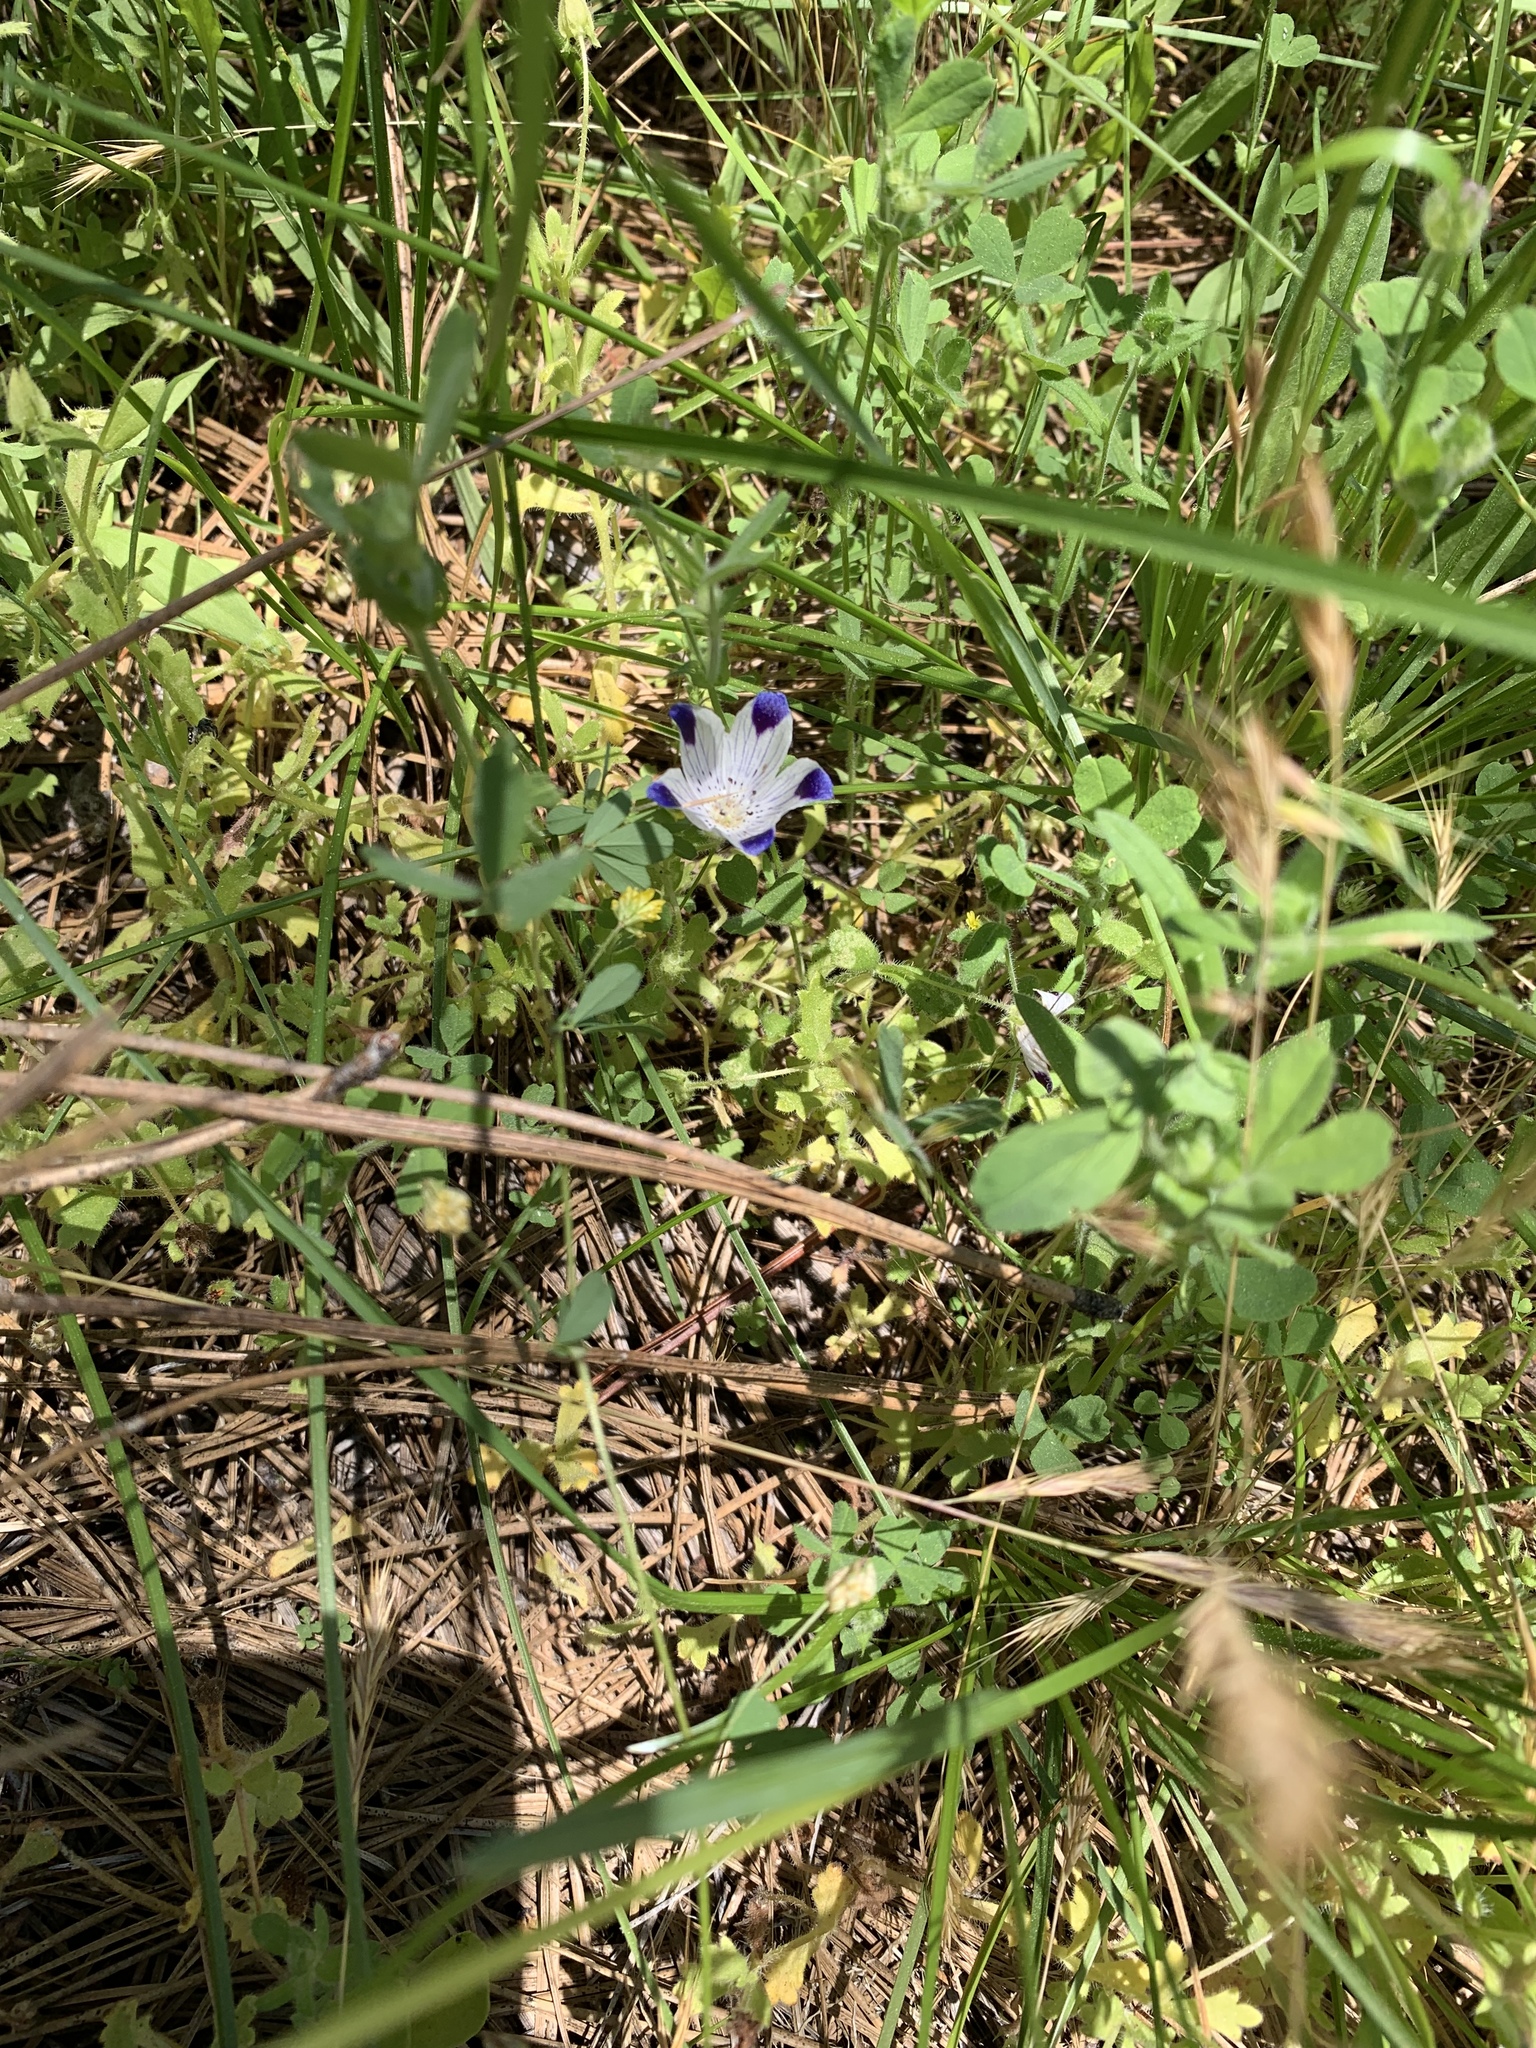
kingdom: Plantae
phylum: Tracheophyta
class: Magnoliopsida
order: Boraginales
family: Hydrophyllaceae
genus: Nemophila
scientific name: Nemophila maculata
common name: Fivespot
